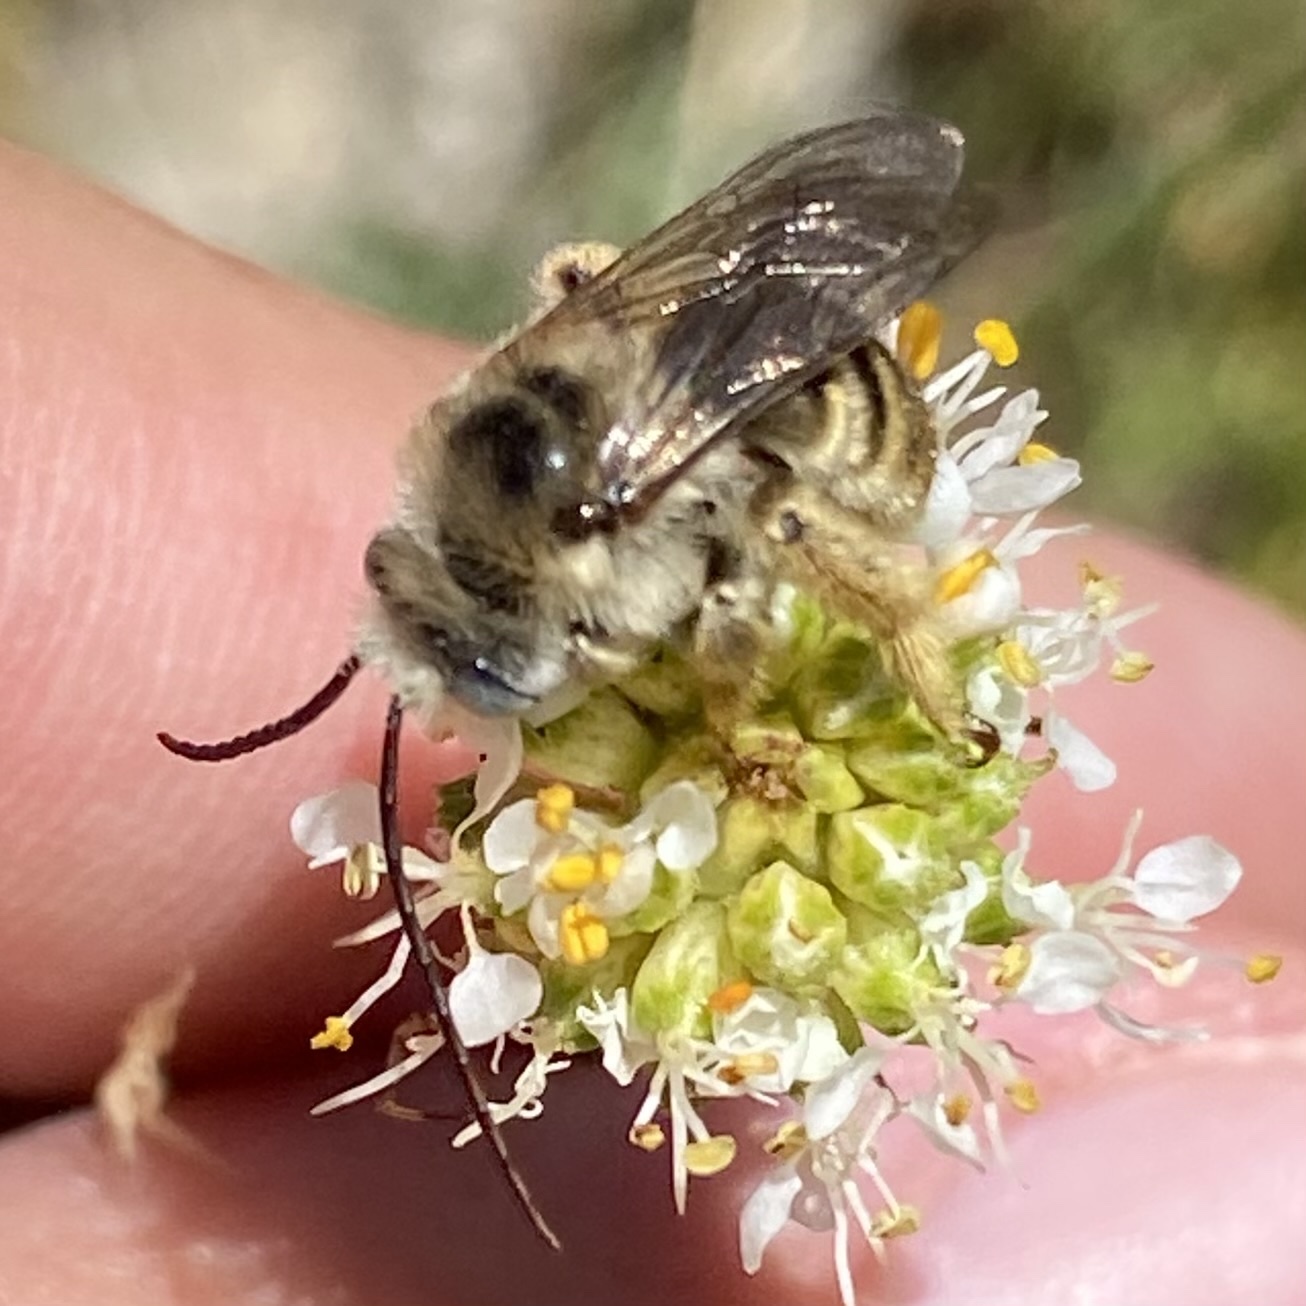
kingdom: Animalia
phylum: Arthropoda
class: Insecta
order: Hymenoptera
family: Apidae
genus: Melissodes
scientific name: Melissodes
